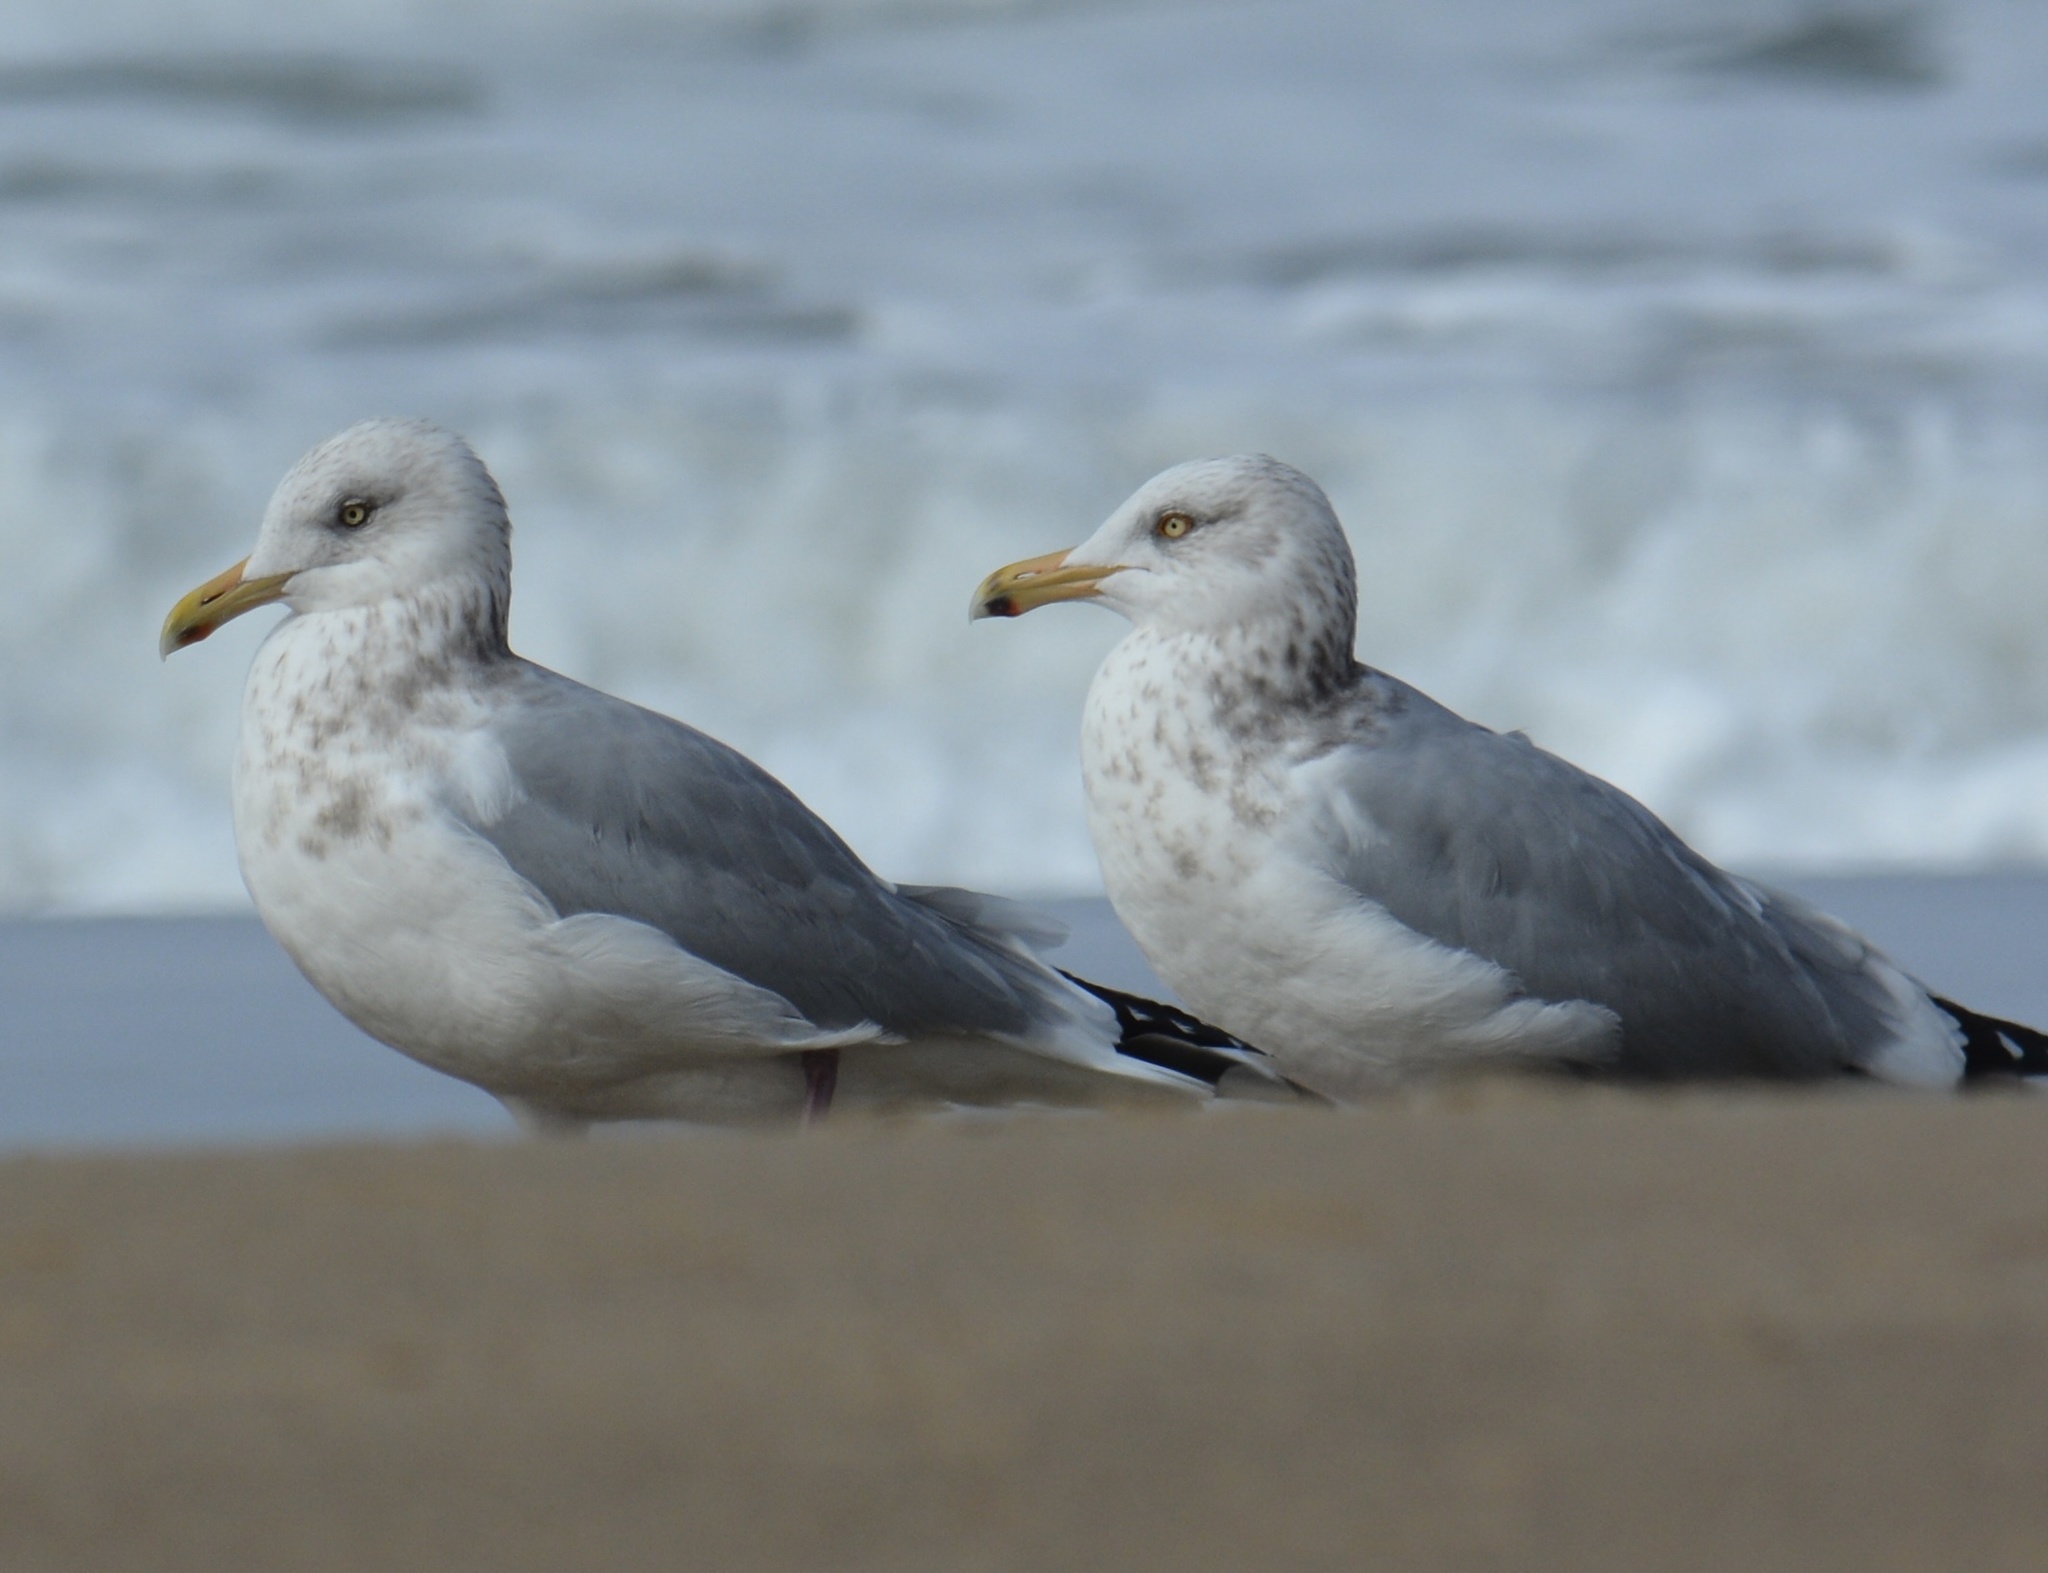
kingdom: Animalia
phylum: Chordata
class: Aves
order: Charadriiformes
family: Laridae
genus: Larus
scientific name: Larus argentatus
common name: Herring gull
